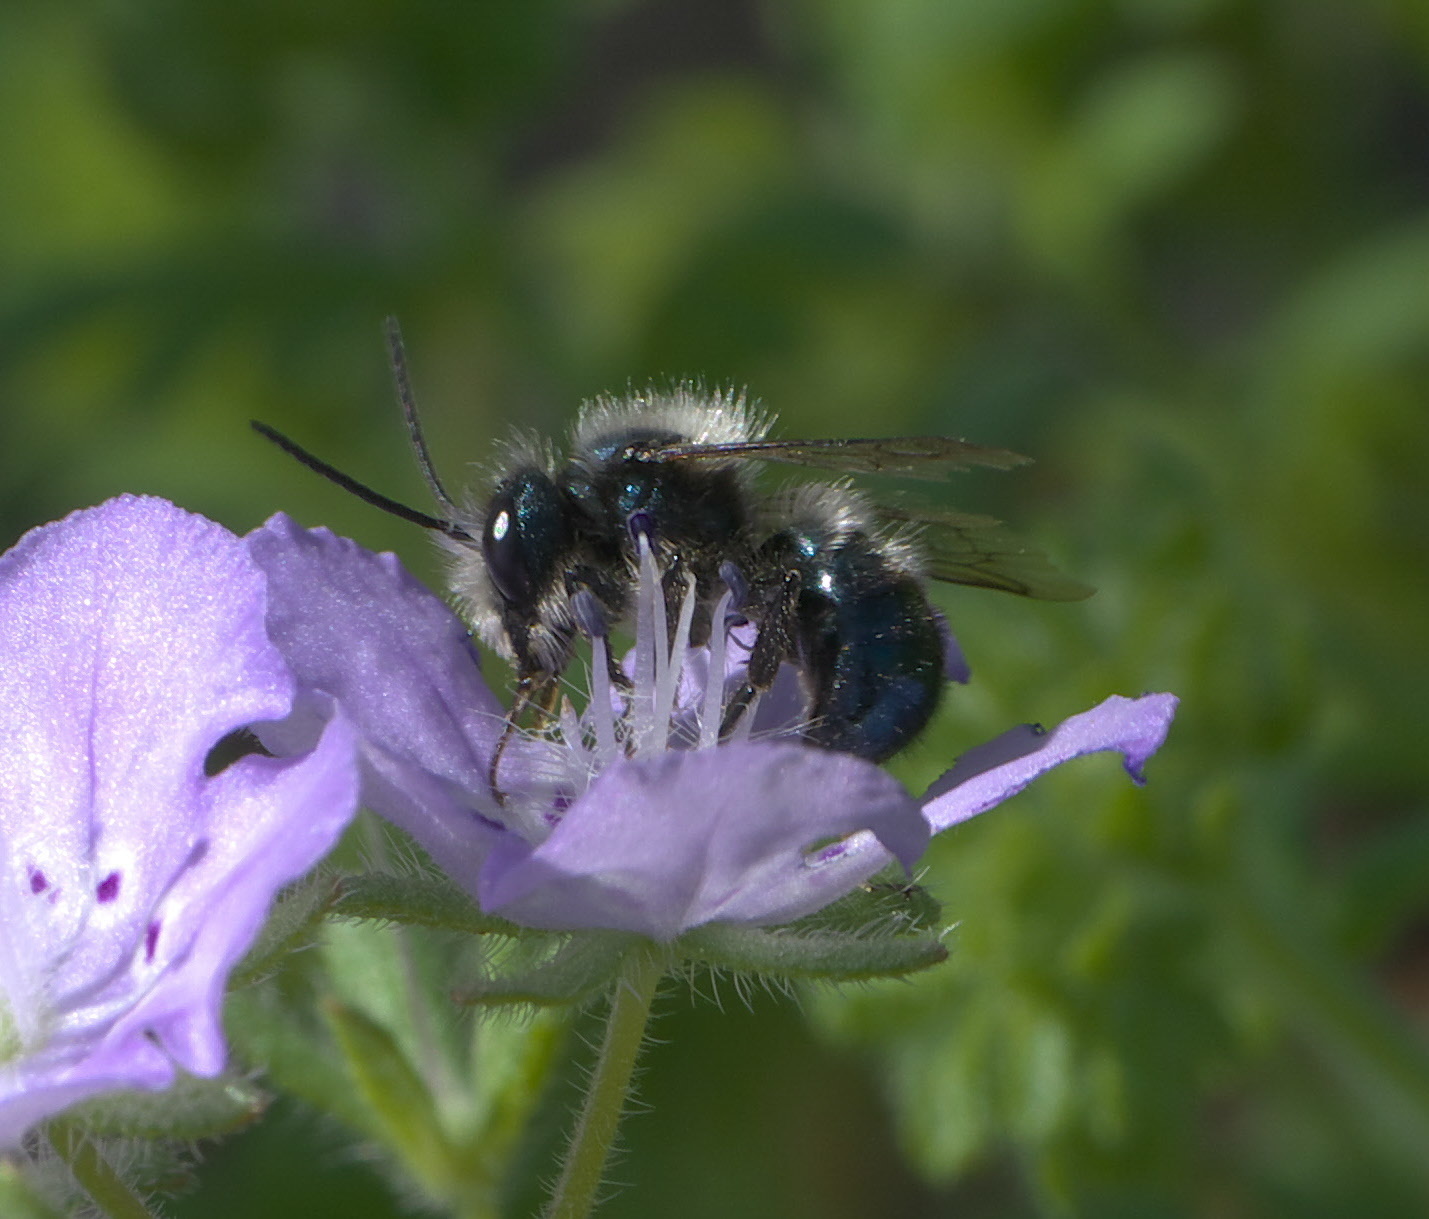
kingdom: Animalia
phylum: Arthropoda
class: Insecta
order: Hymenoptera
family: Megachilidae
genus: Osmia
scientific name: Osmia lignaria
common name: Blue orchard bee
